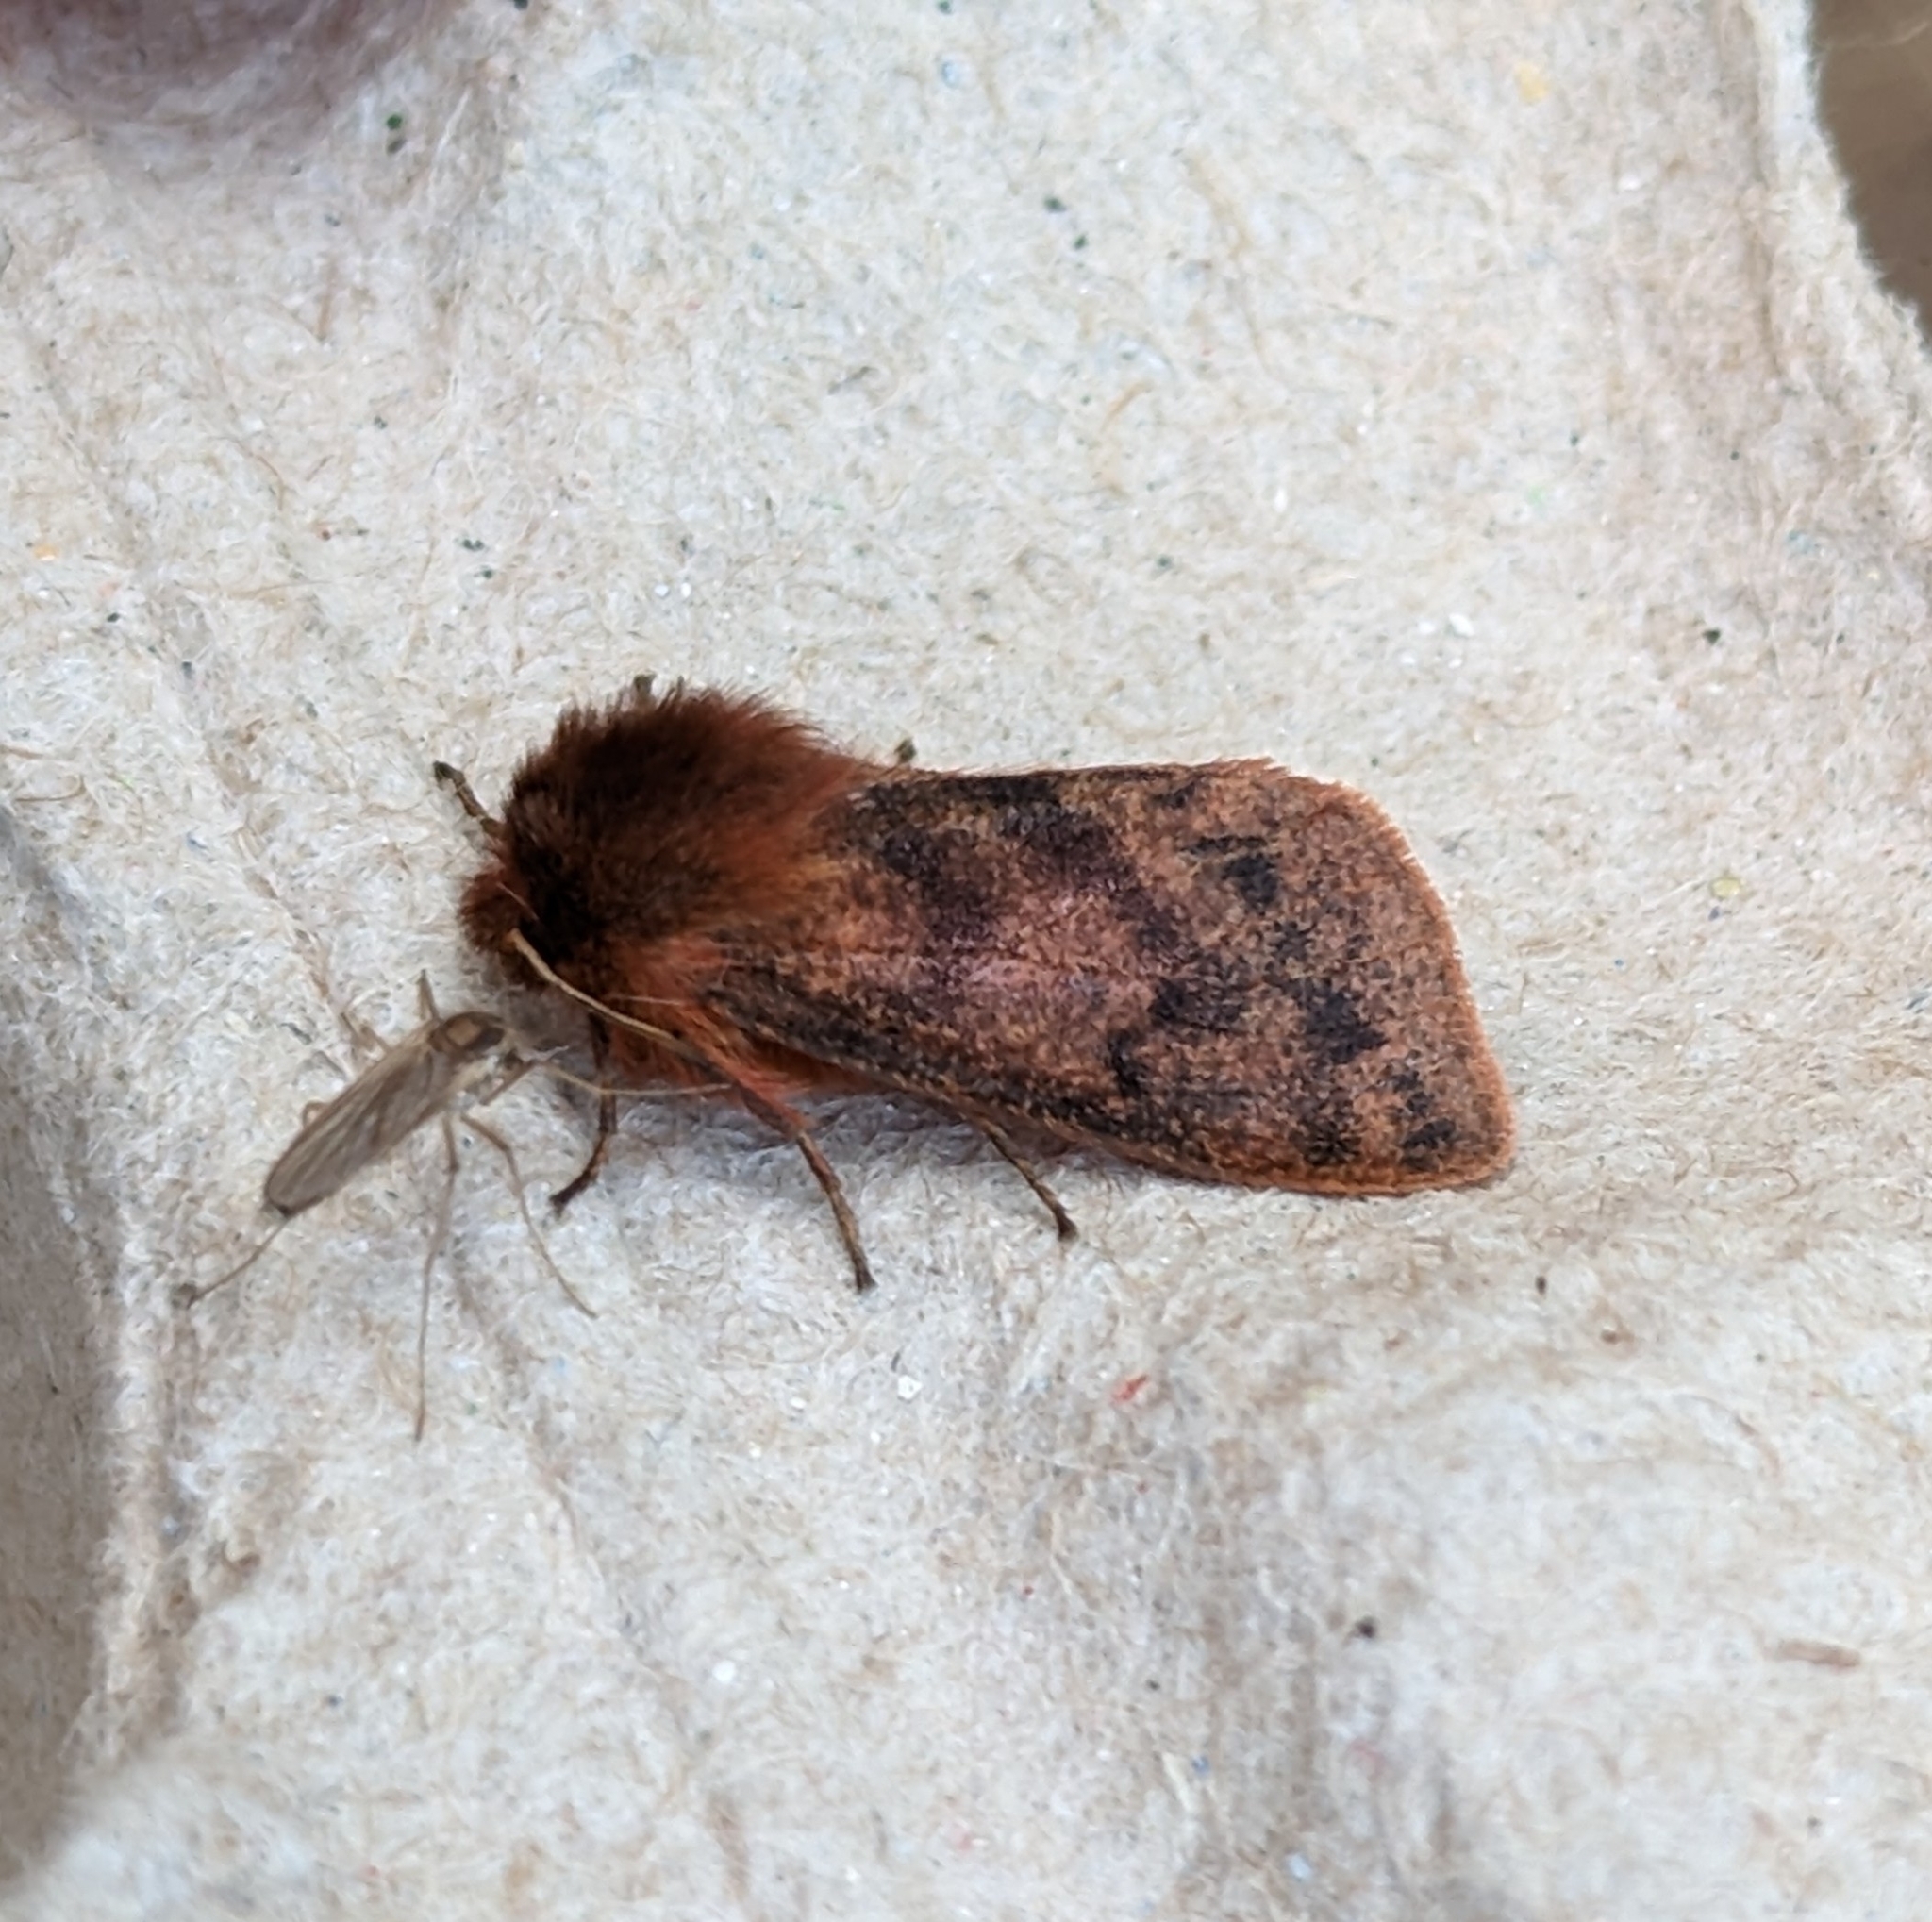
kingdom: Animalia
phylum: Arthropoda
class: Insecta
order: Lepidoptera
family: Erebidae
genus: Phragmatobia
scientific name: Phragmatobia assimilans
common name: Large ruby tiger moth
